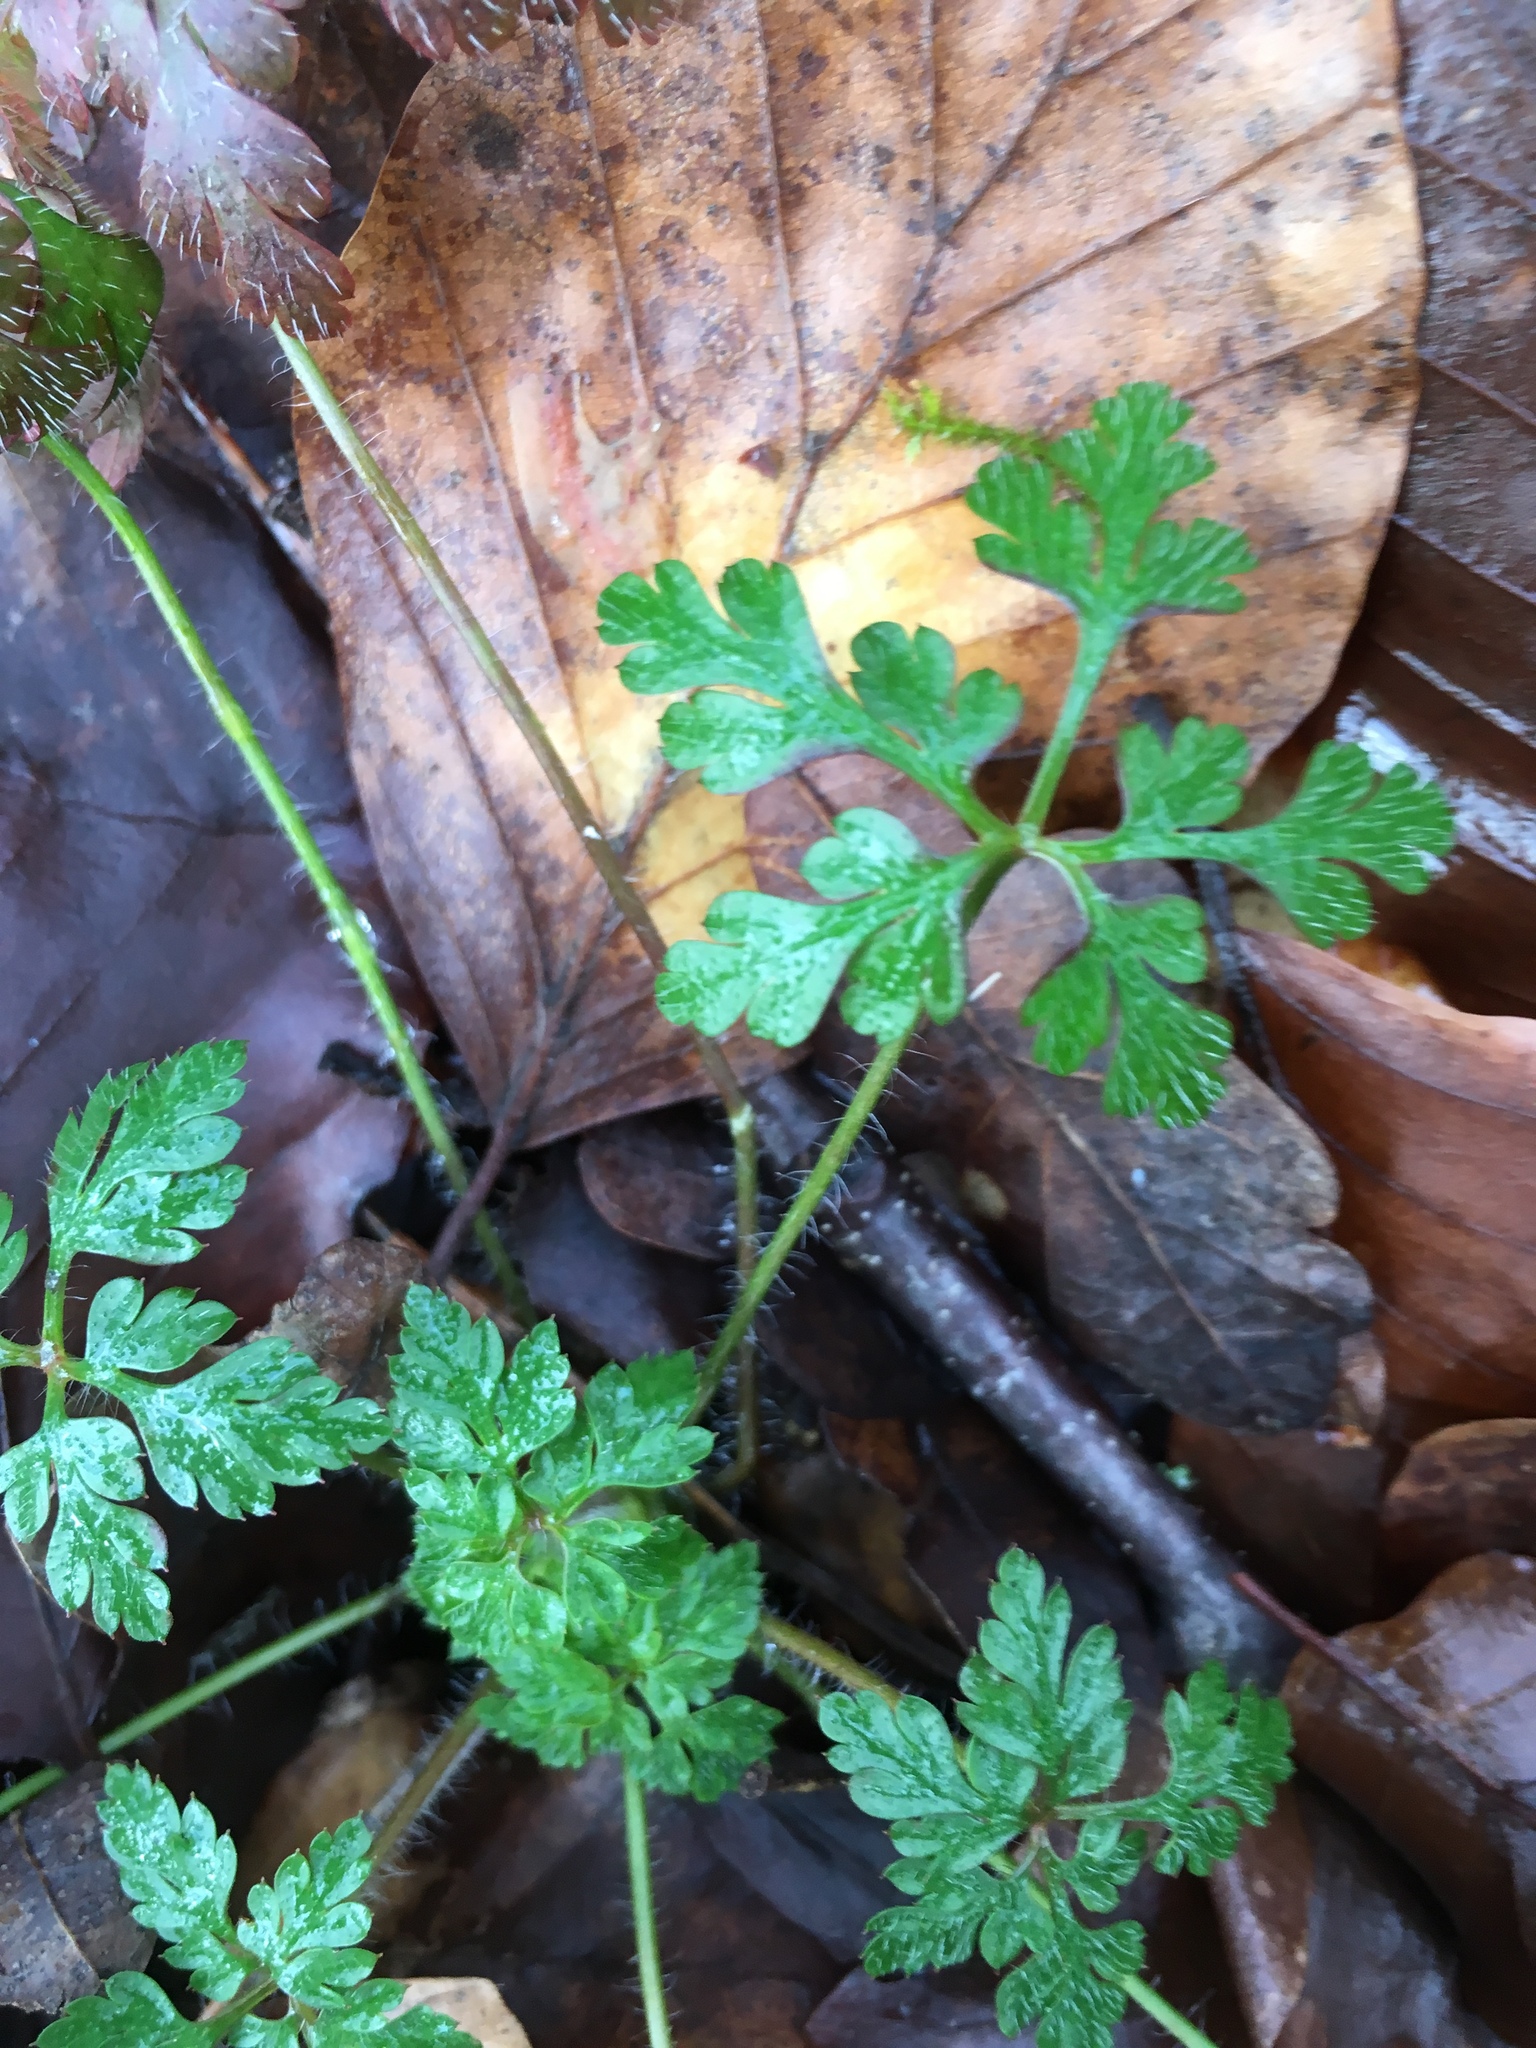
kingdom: Plantae
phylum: Tracheophyta
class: Magnoliopsida
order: Geraniales
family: Geraniaceae
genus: Geranium
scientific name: Geranium robertianum
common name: Herb-robert
